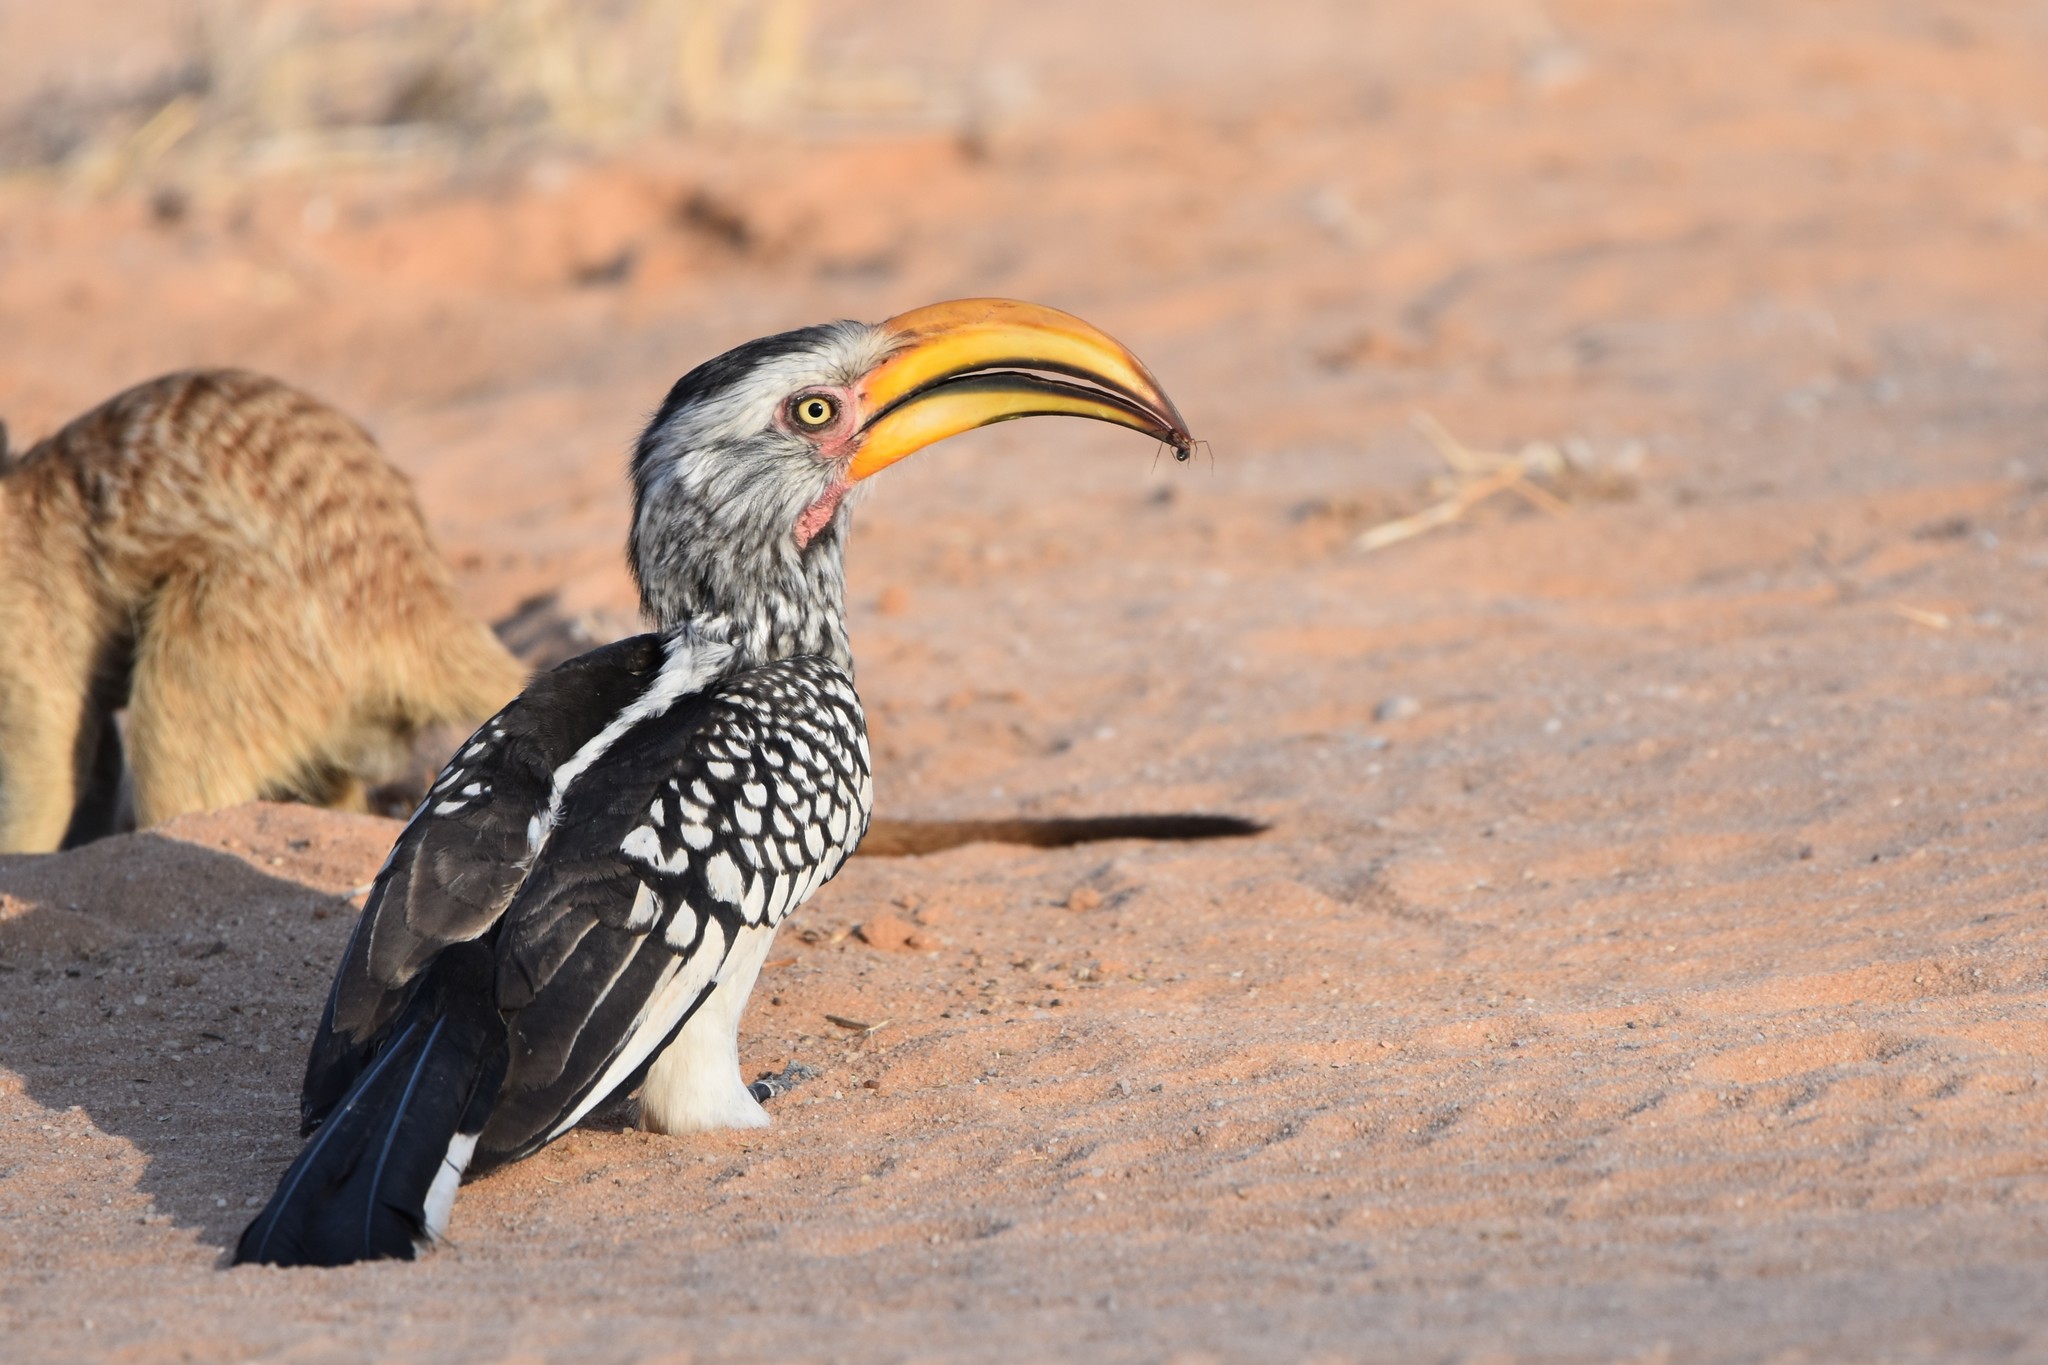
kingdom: Animalia
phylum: Chordata
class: Aves
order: Bucerotiformes
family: Bucerotidae
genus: Tockus
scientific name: Tockus leucomelas
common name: Southern yellow-billed hornbill
